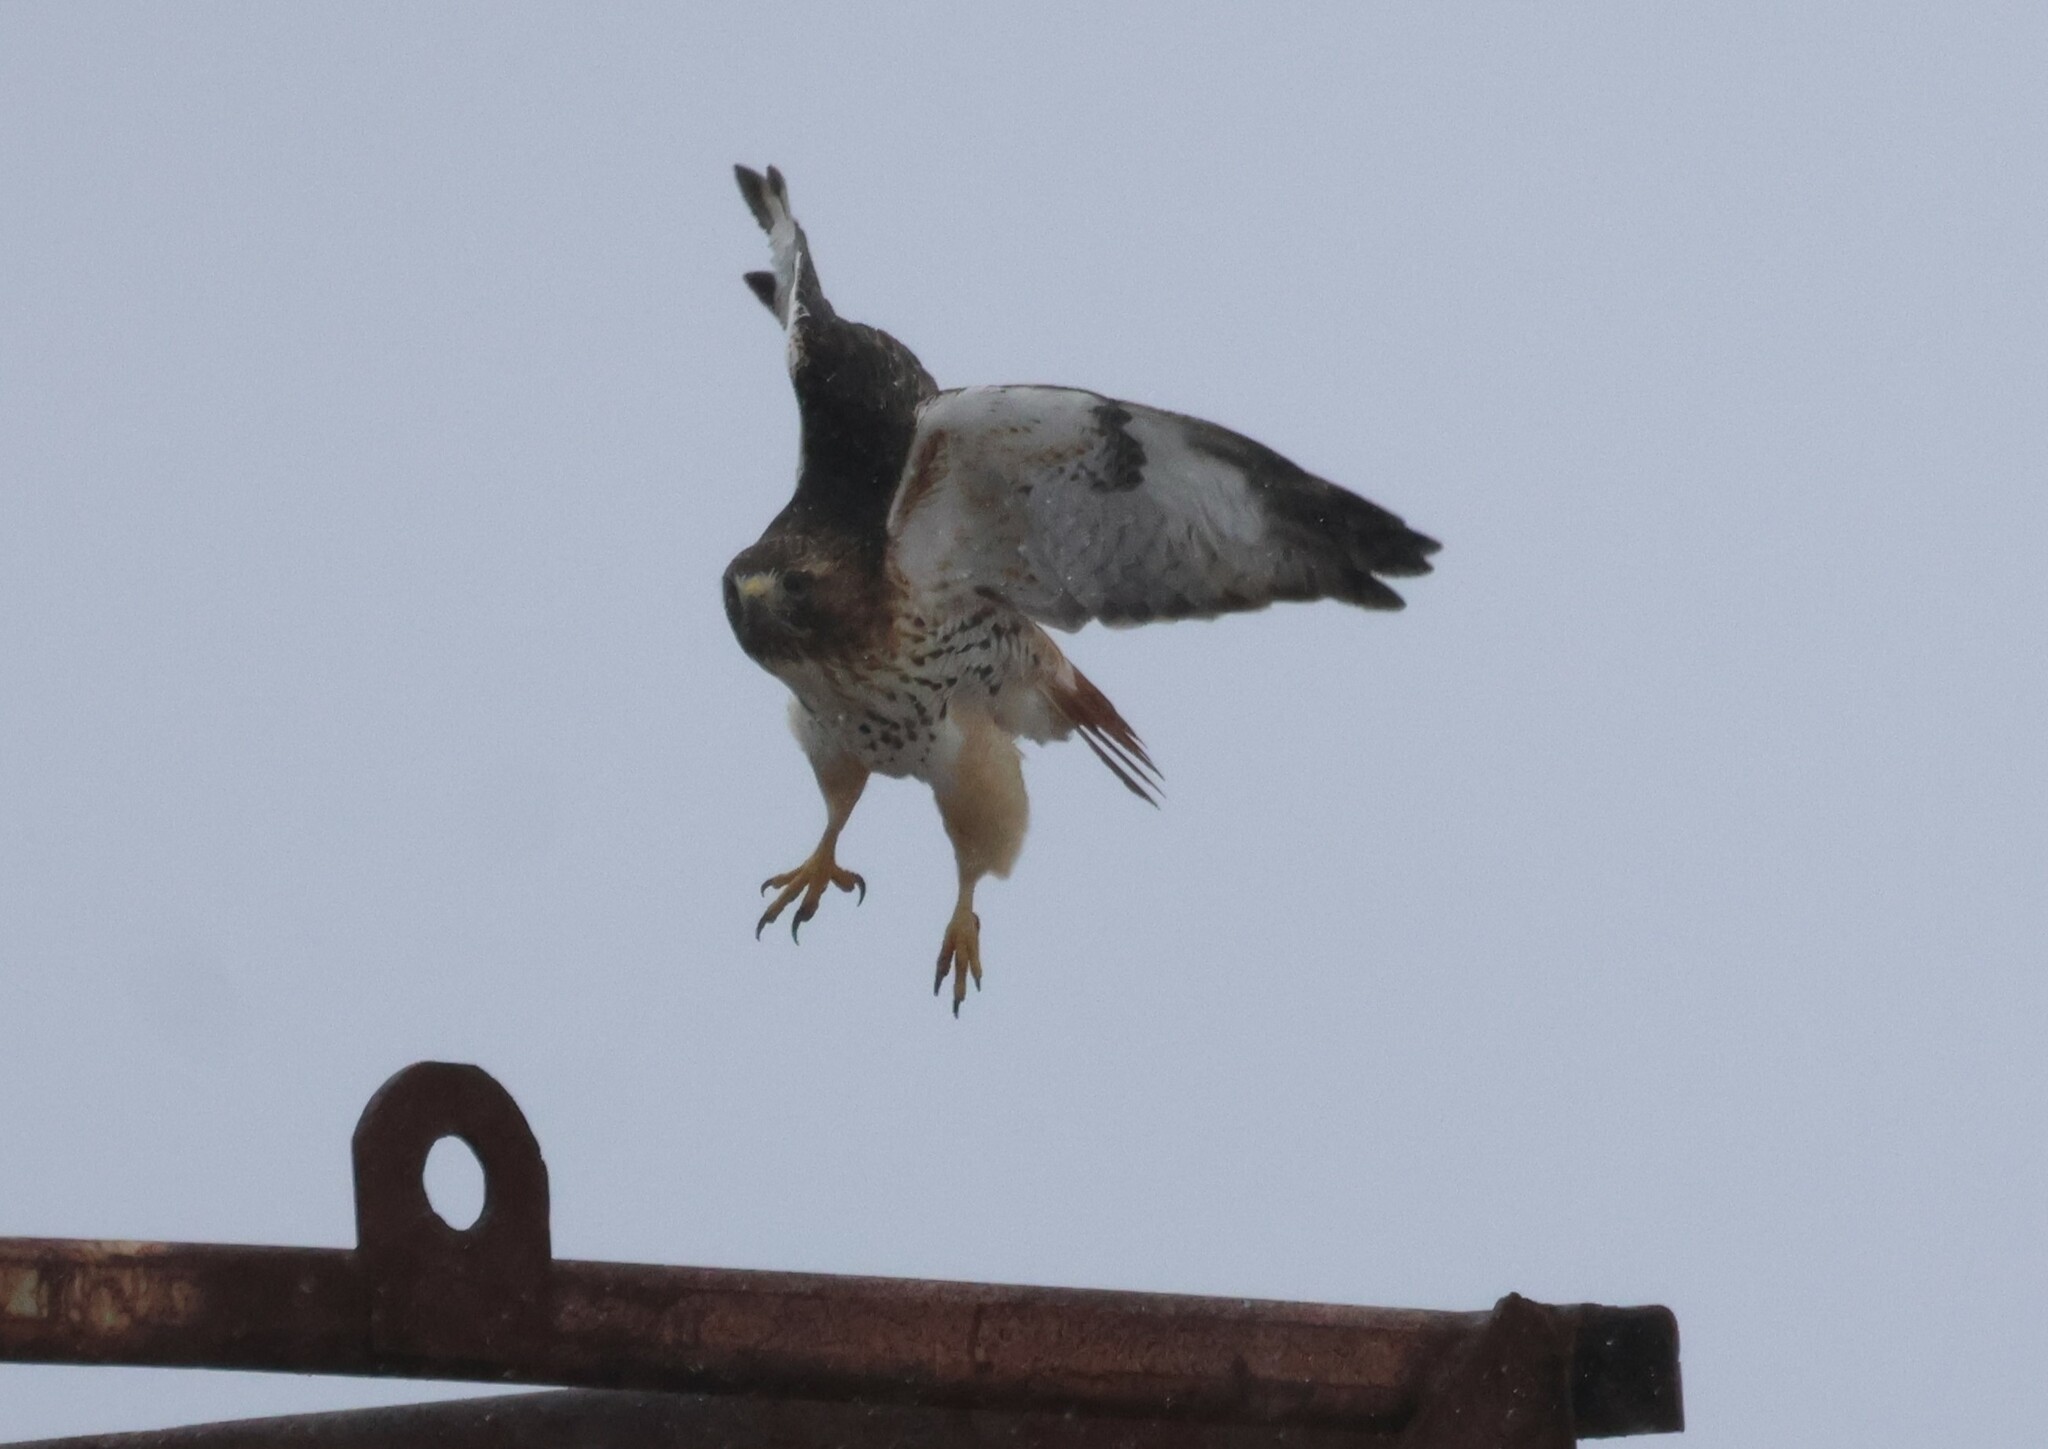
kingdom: Animalia
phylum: Chordata
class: Aves
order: Accipitriformes
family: Accipitridae
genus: Buteo
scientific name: Buteo jamaicensis
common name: Red-tailed hawk
